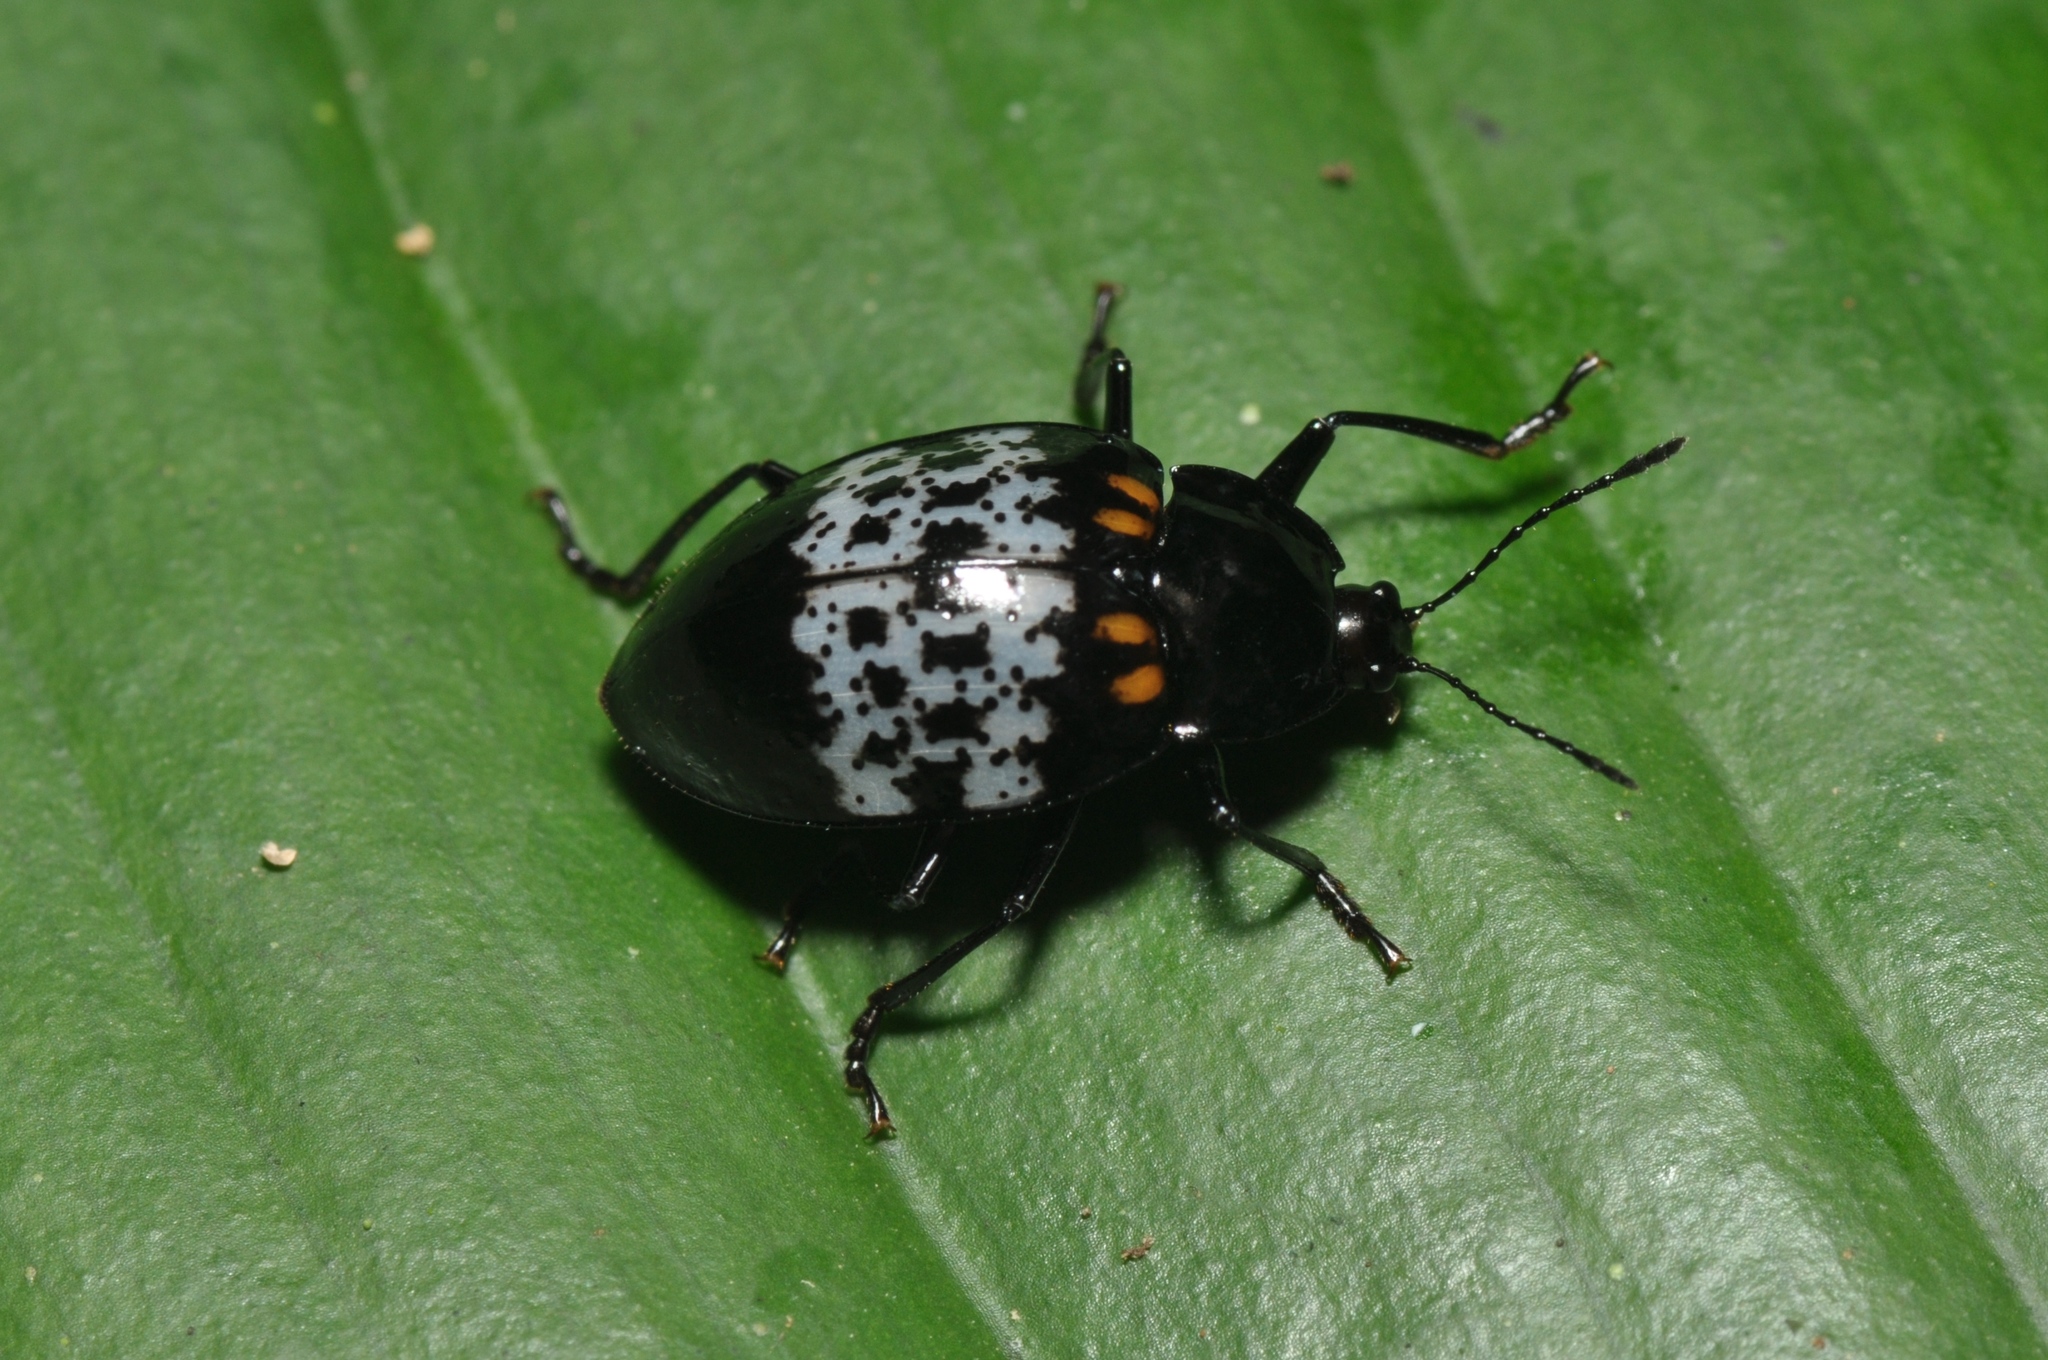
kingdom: Animalia
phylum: Arthropoda
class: Insecta
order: Coleoptera
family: Erotylidae
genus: Prepopharus
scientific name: Prepopharus
